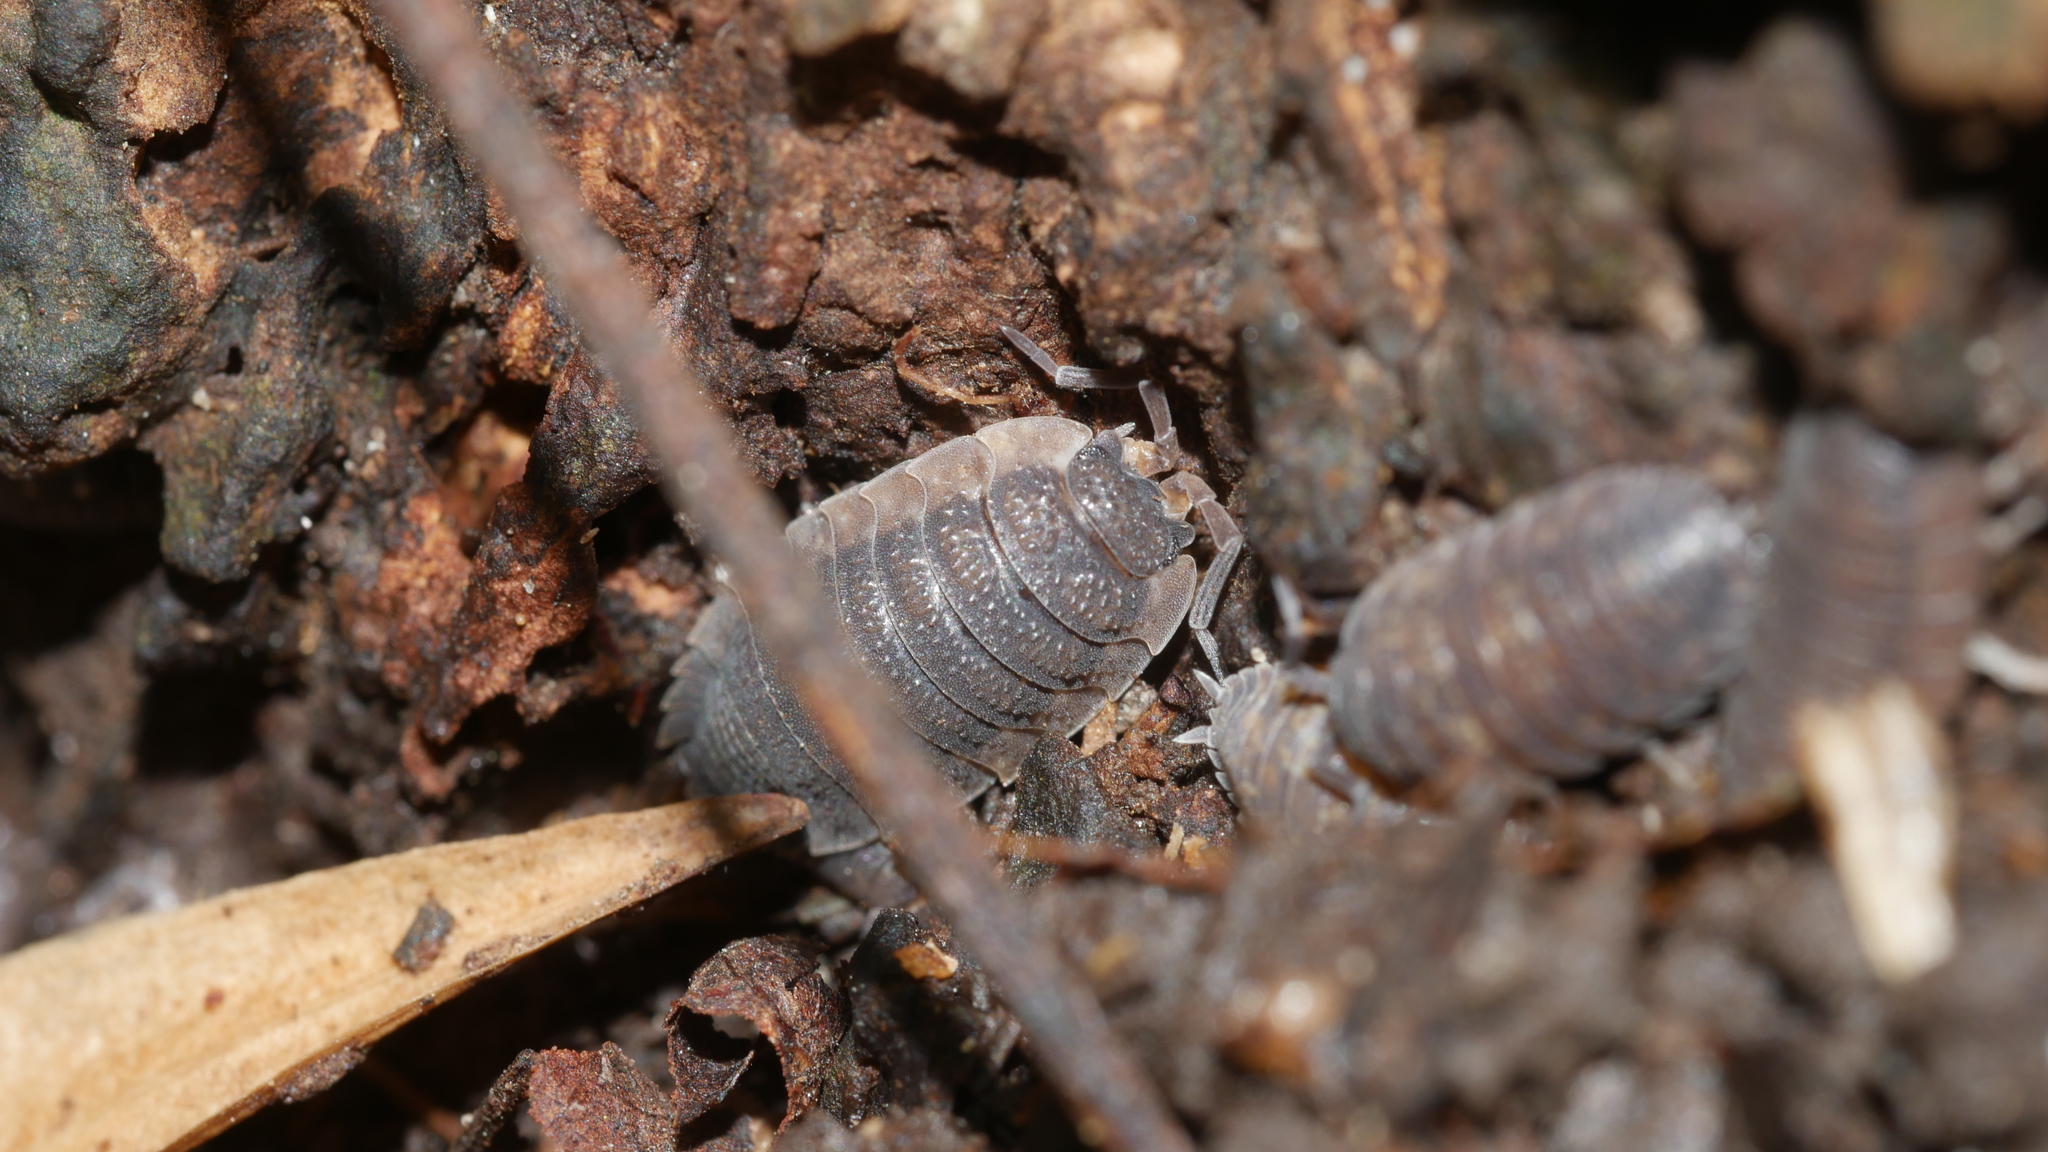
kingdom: Animalia
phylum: Arthropoda
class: Malacostraca
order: Isopoda
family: Porcellionidae
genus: Porcellio
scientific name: Porcellio scaber
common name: Common rough woodlouse
